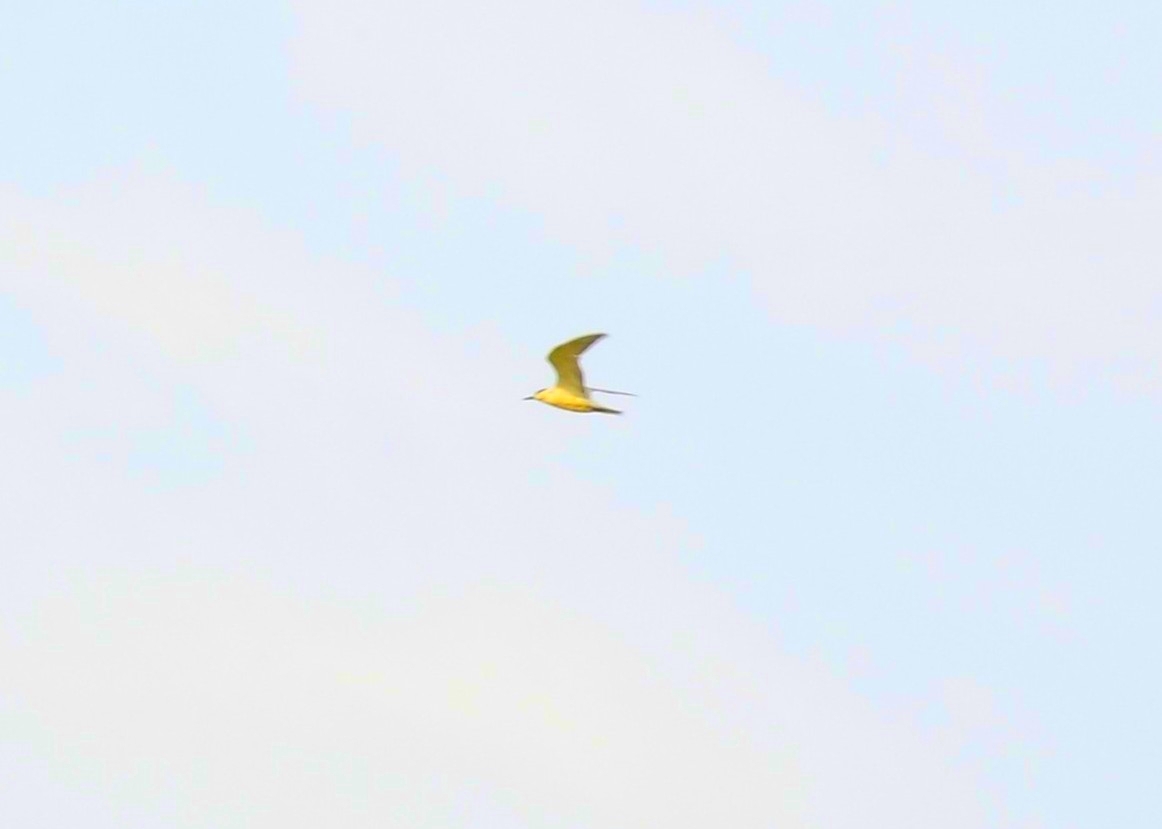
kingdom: Animalia
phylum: Chordata
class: Aves
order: Charadriiformes
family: Laridae
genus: Chlidonias
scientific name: Chlidonias hybrida
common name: Whiskered tern
